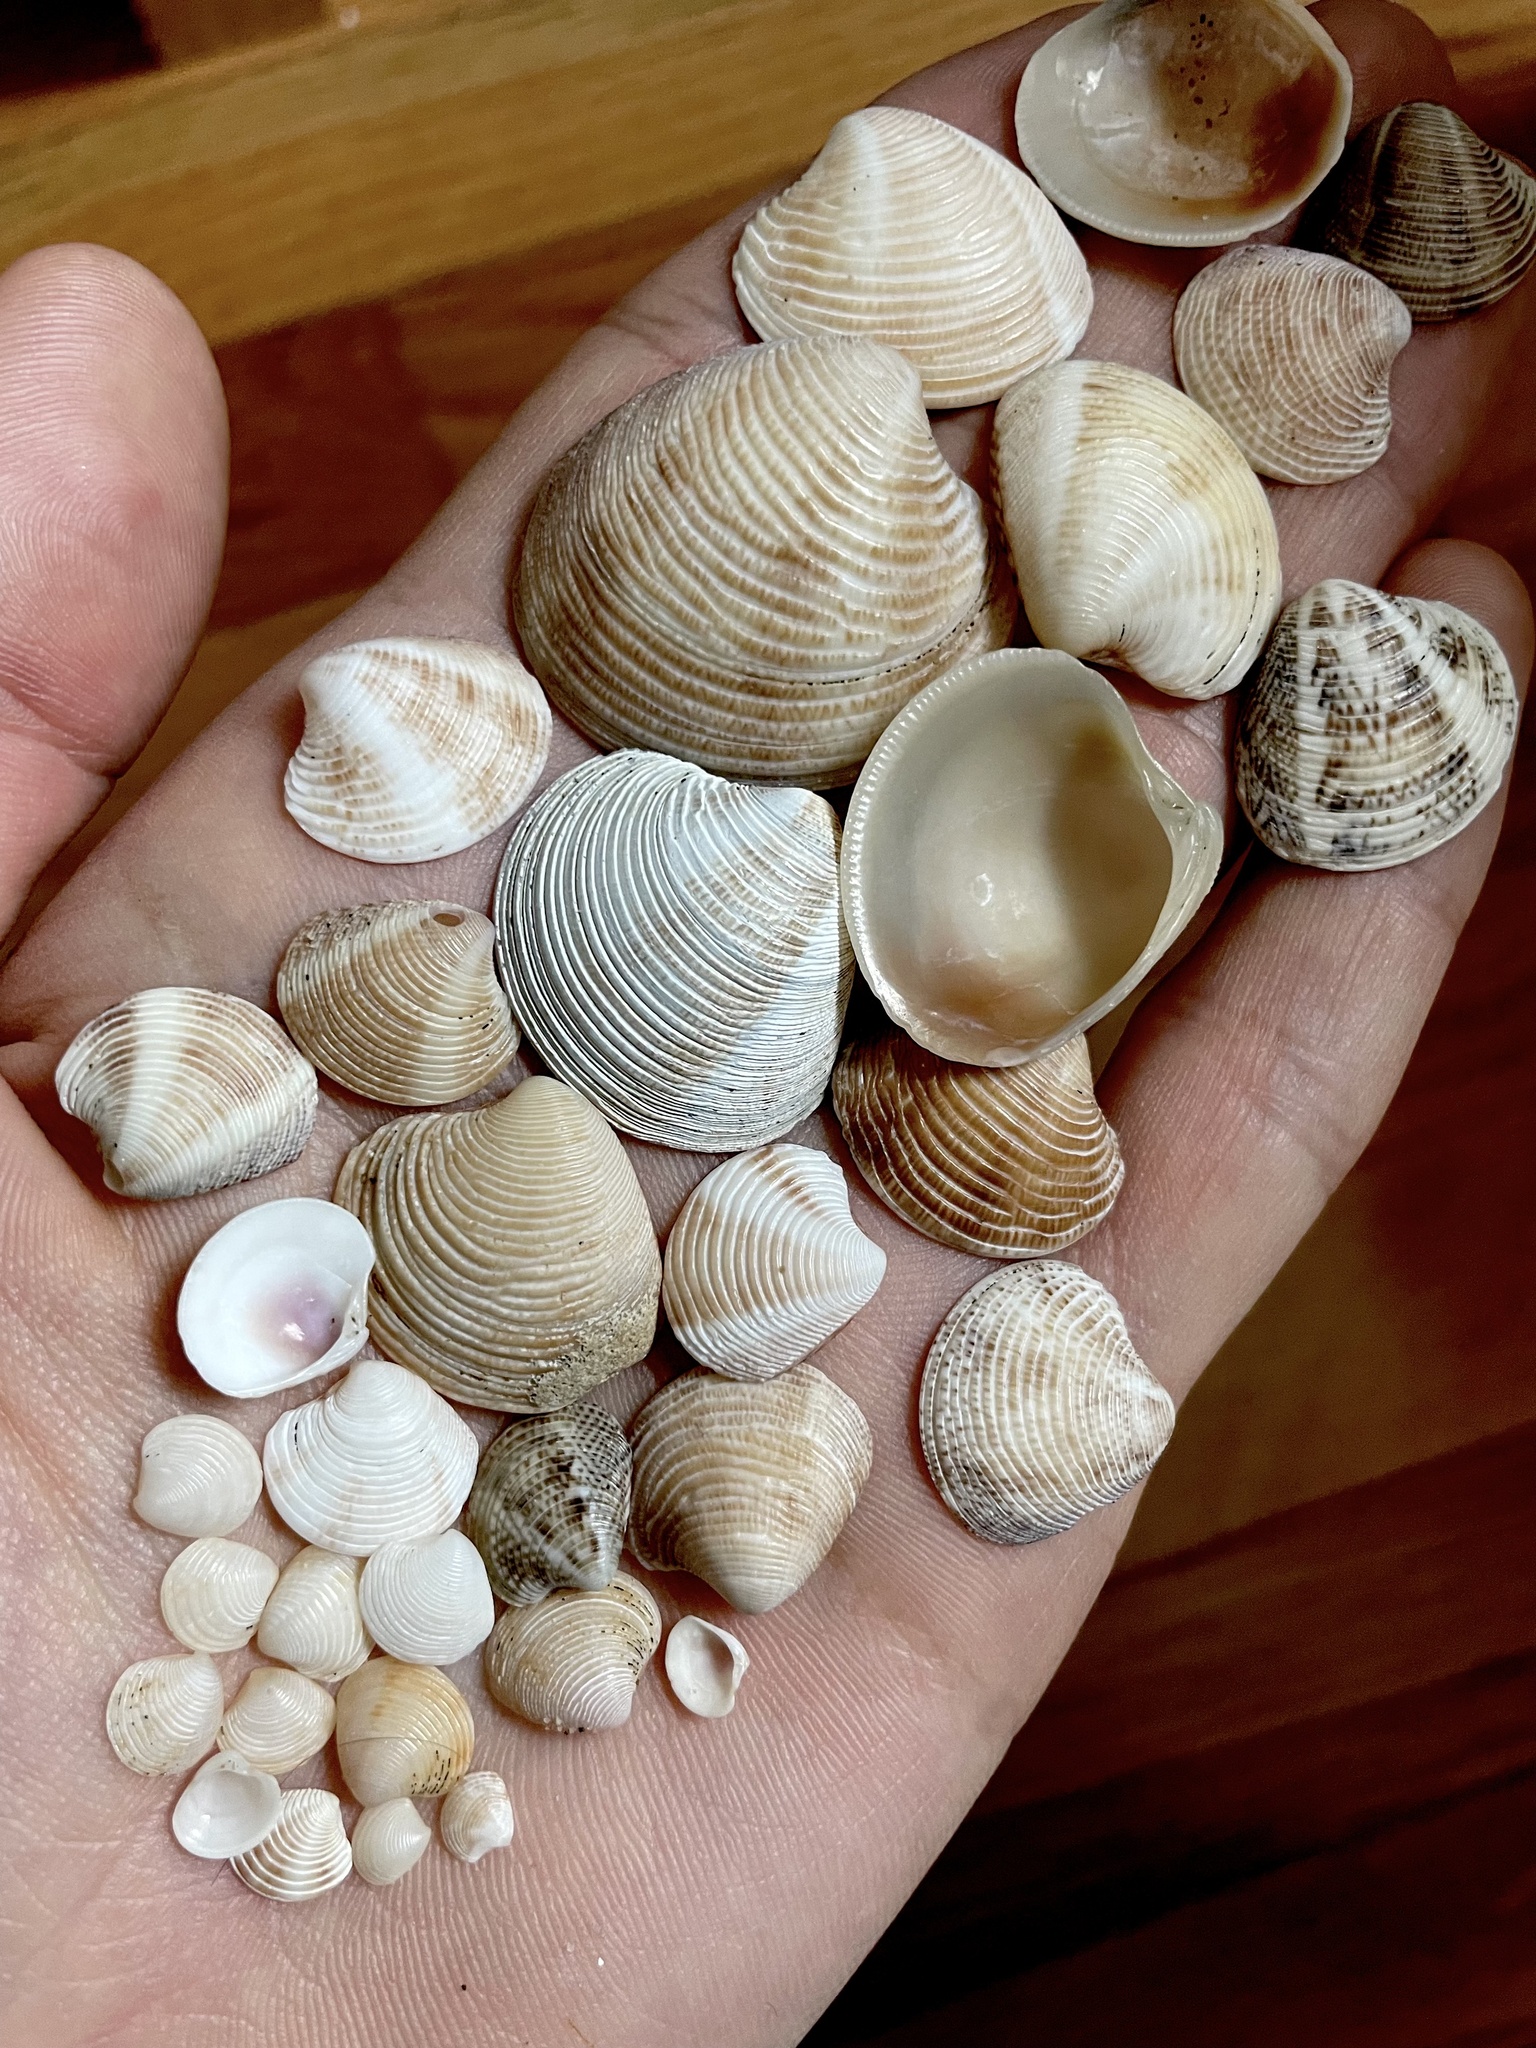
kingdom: Animalia
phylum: Mollusca
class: Bivalvia
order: Venerida
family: Veneridae
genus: Chamelea
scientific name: Chamelea gallina
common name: Chicken venus
